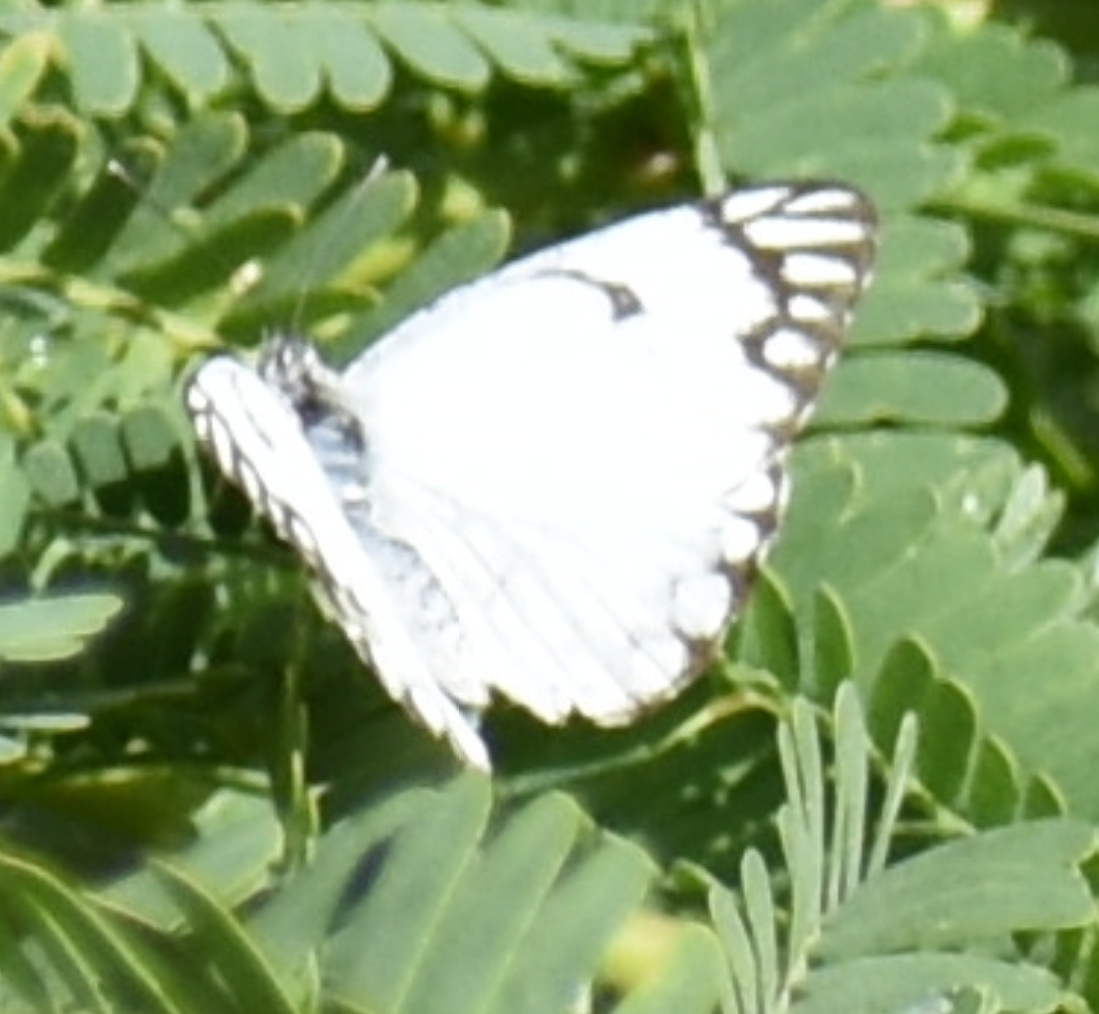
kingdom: Animalia
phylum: Arthropoda
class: Insecta
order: Lepidoptera
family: Pieridae
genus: Belenois
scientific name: Belenois aurota
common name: Brown-veined white
